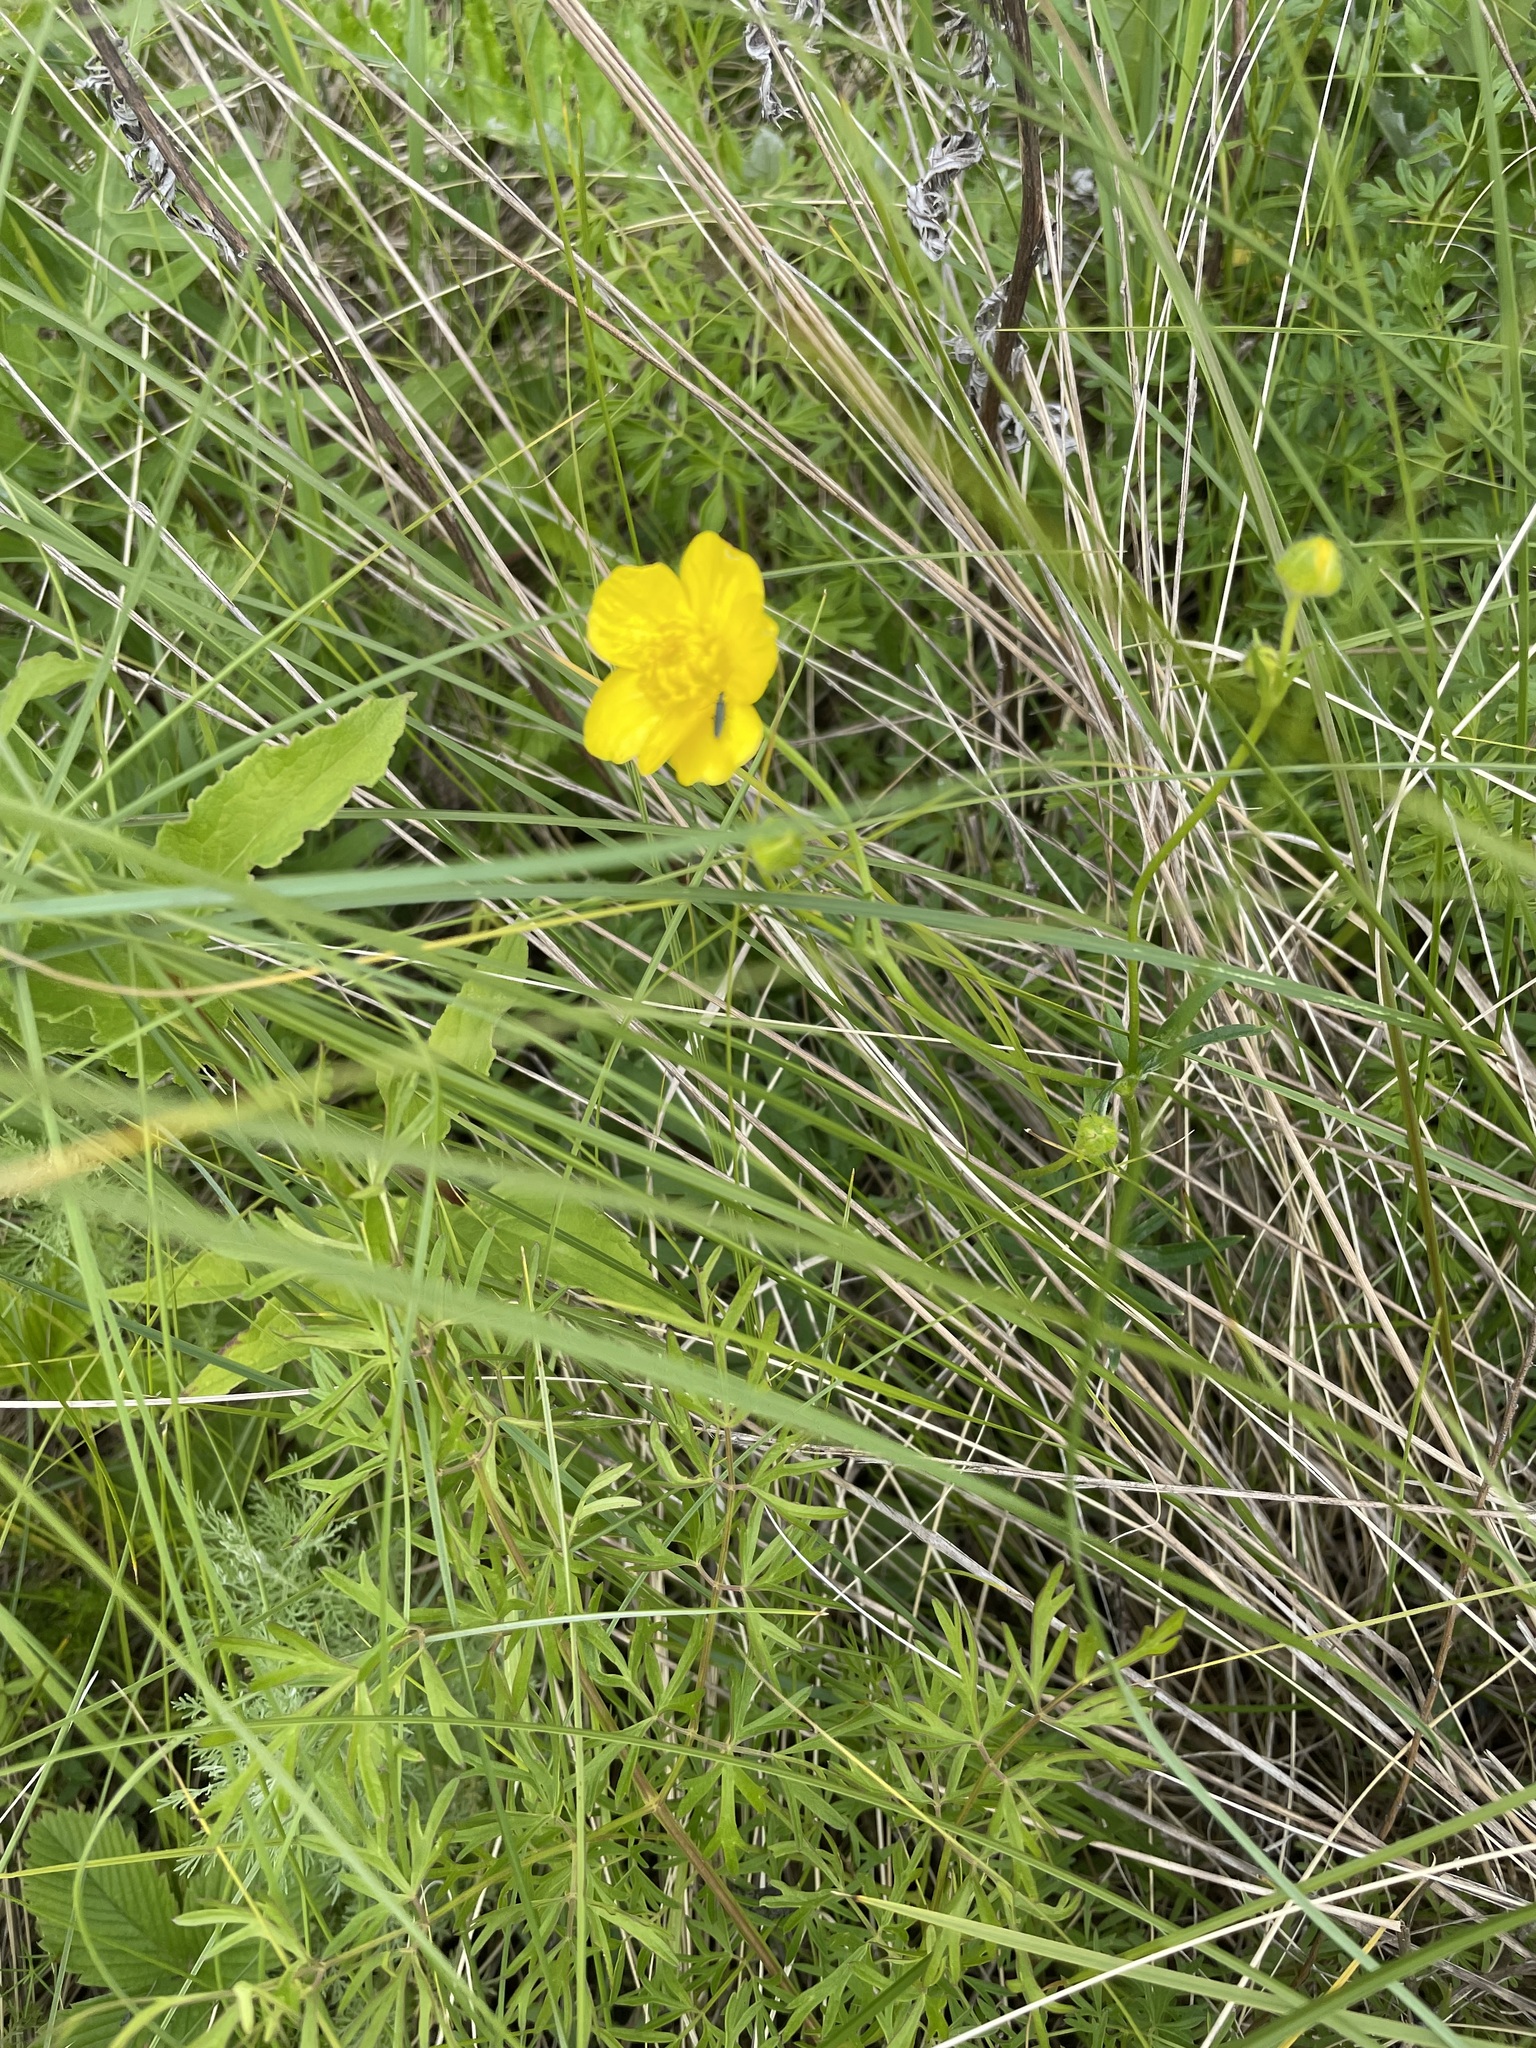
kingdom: Plantae
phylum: Tracheophyta
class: Magnoliopsida
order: Ranunculales
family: Ranunculaceae
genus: Ranunculus
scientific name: Ranunculus polyanthemos
